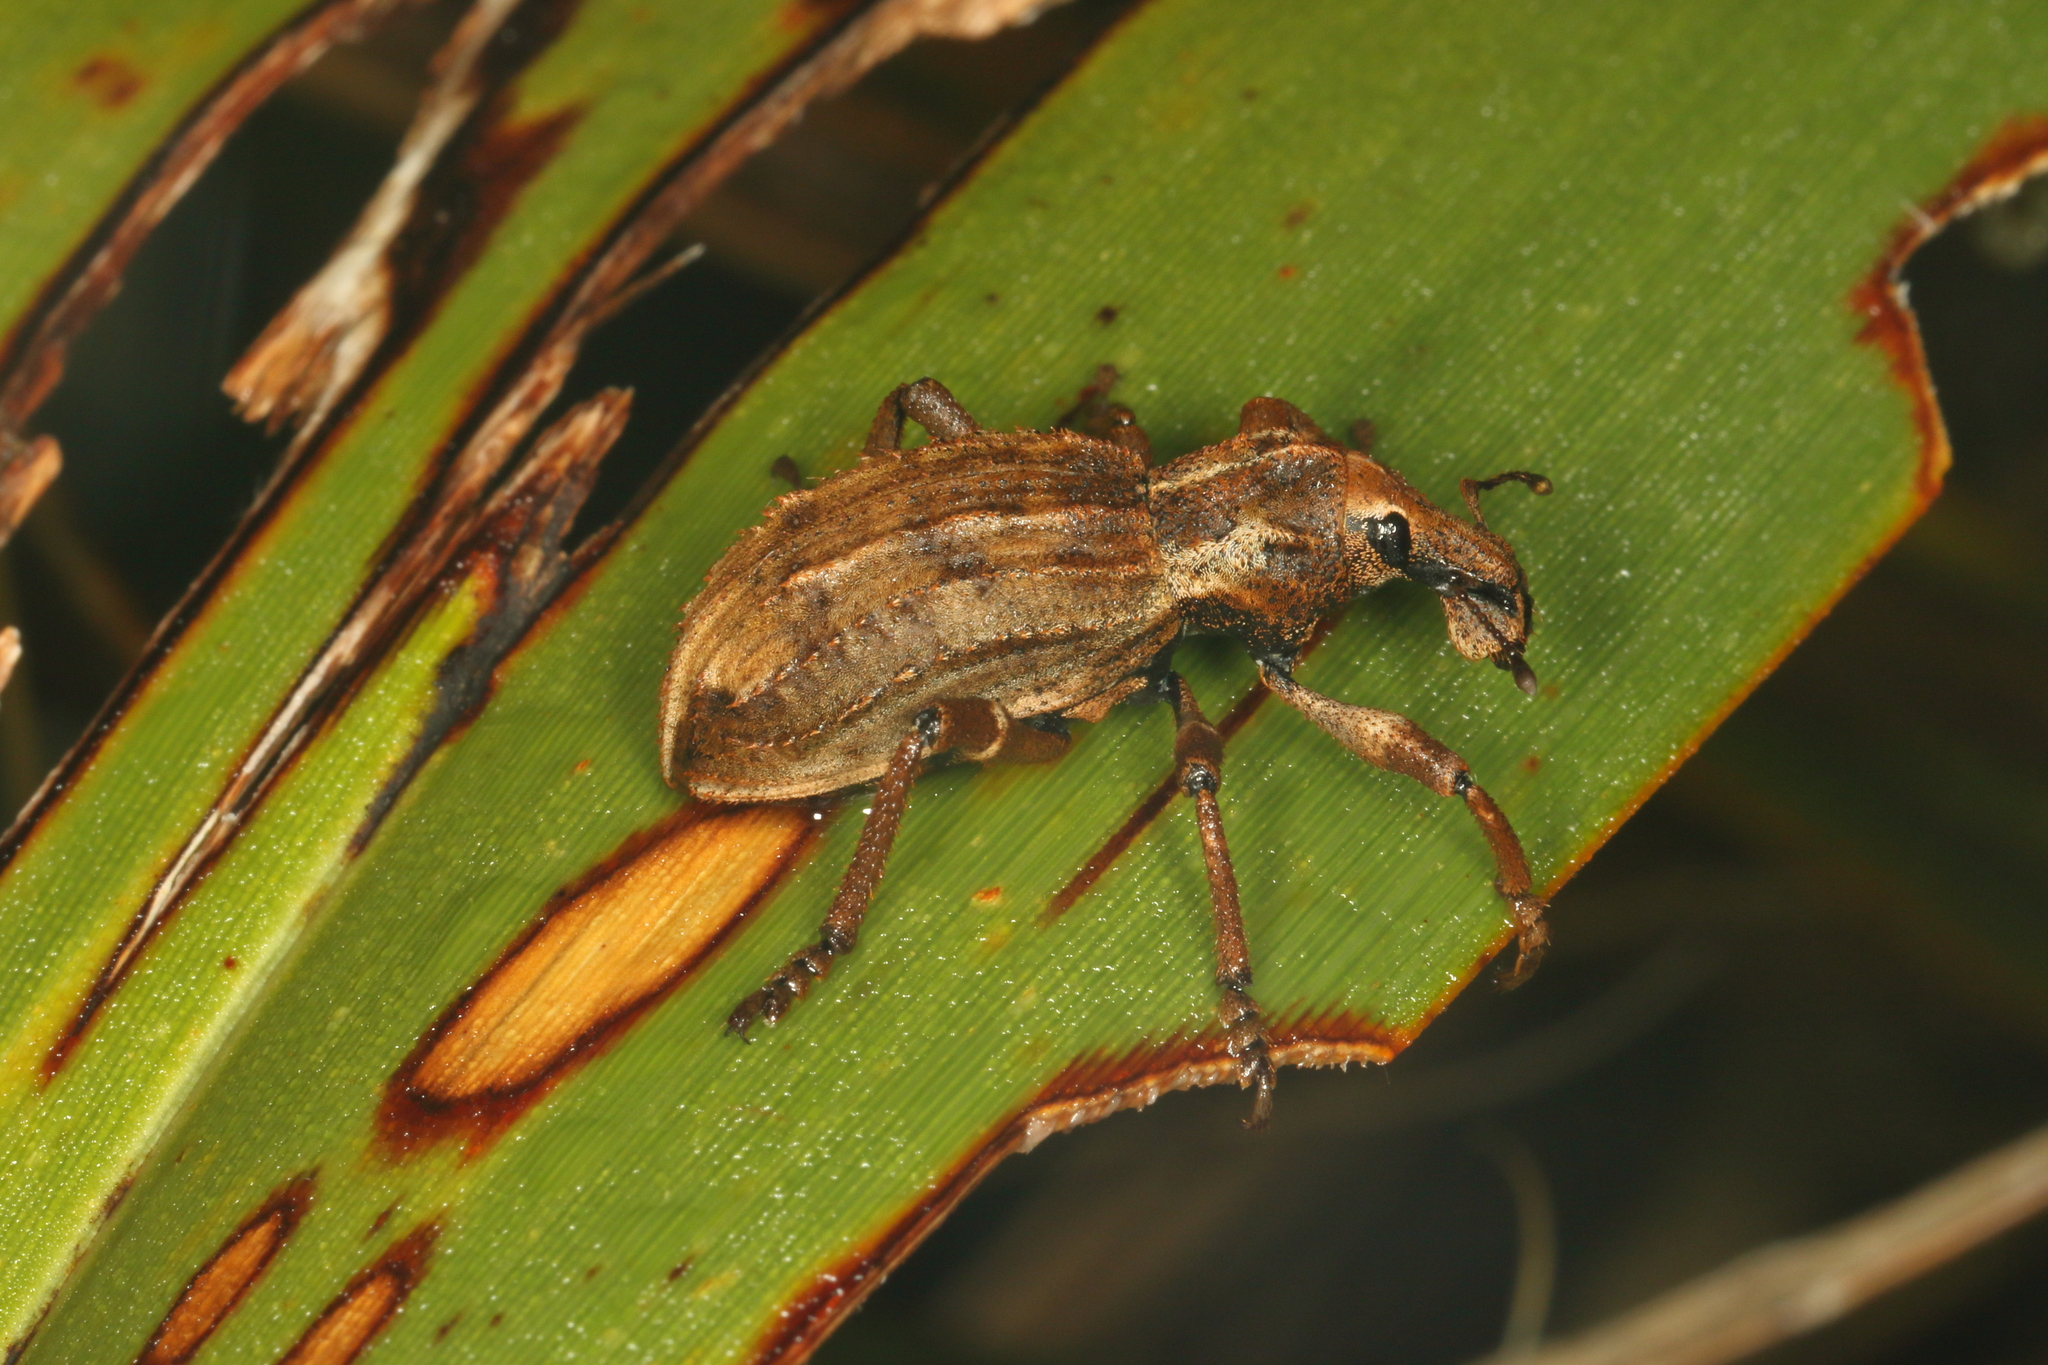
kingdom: Animalia
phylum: Arthropoda
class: Insecta
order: Coleoptera
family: Curculionidae
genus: Anagotus
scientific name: Anagotus
